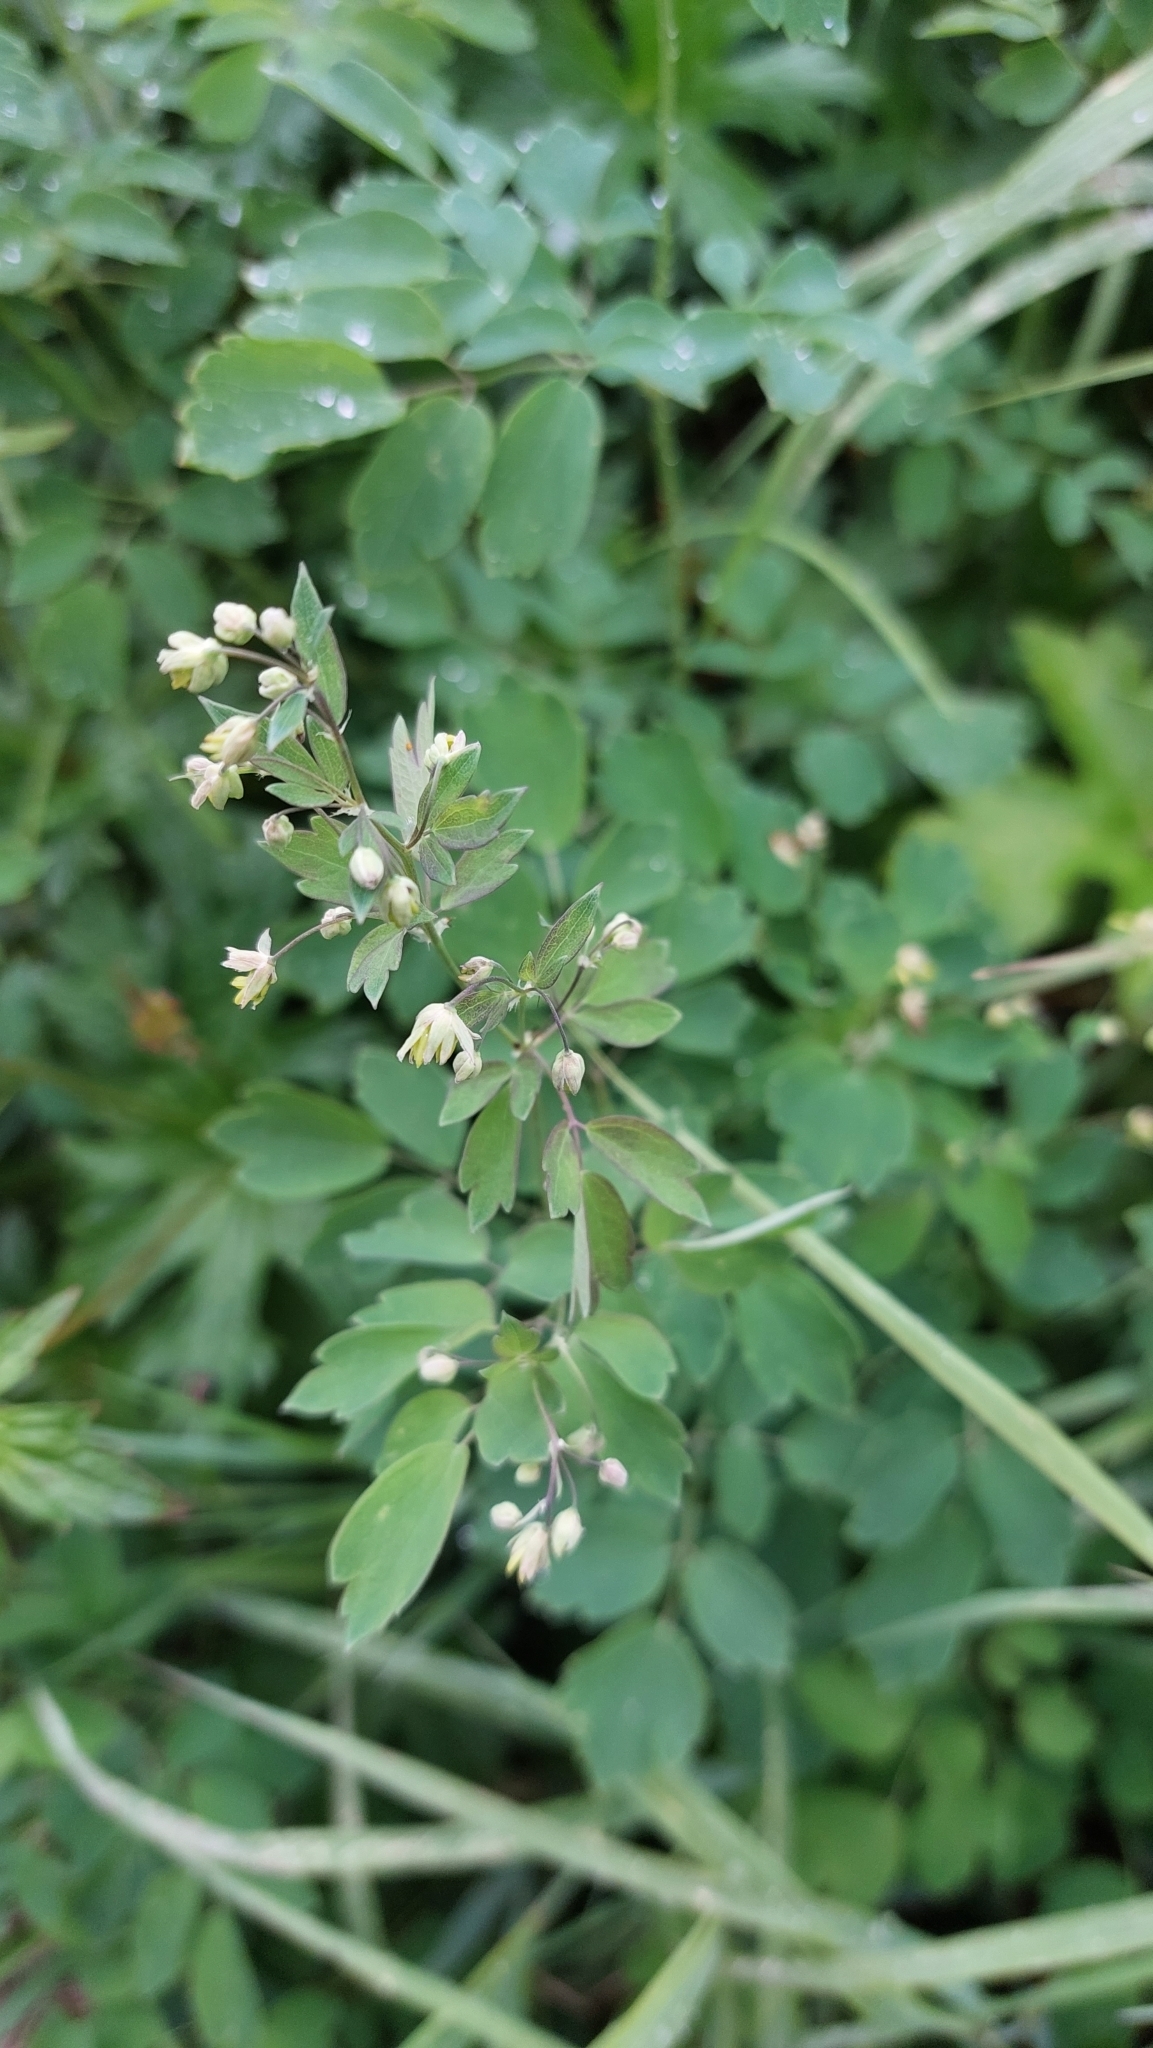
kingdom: Plantae
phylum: Tracheophyta
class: Magnoliopsida
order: Ranunculales
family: Ranunculaceae
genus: Thalictrum
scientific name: Thalictrum minus
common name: Lesser meadow-rue
